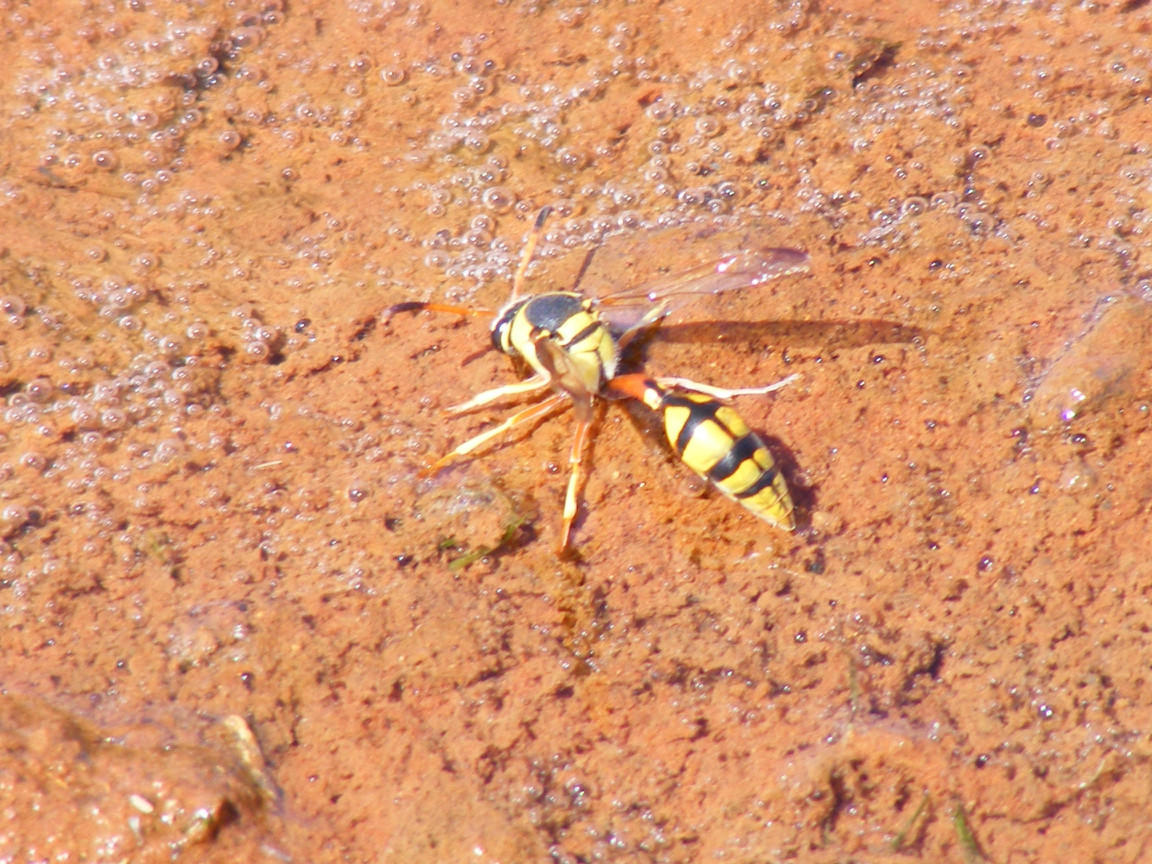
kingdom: Animalia
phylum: Arthropoda
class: Insecta
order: Hymenoptera
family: Eumenidae
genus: Delta
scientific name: Delta lepeleterii
